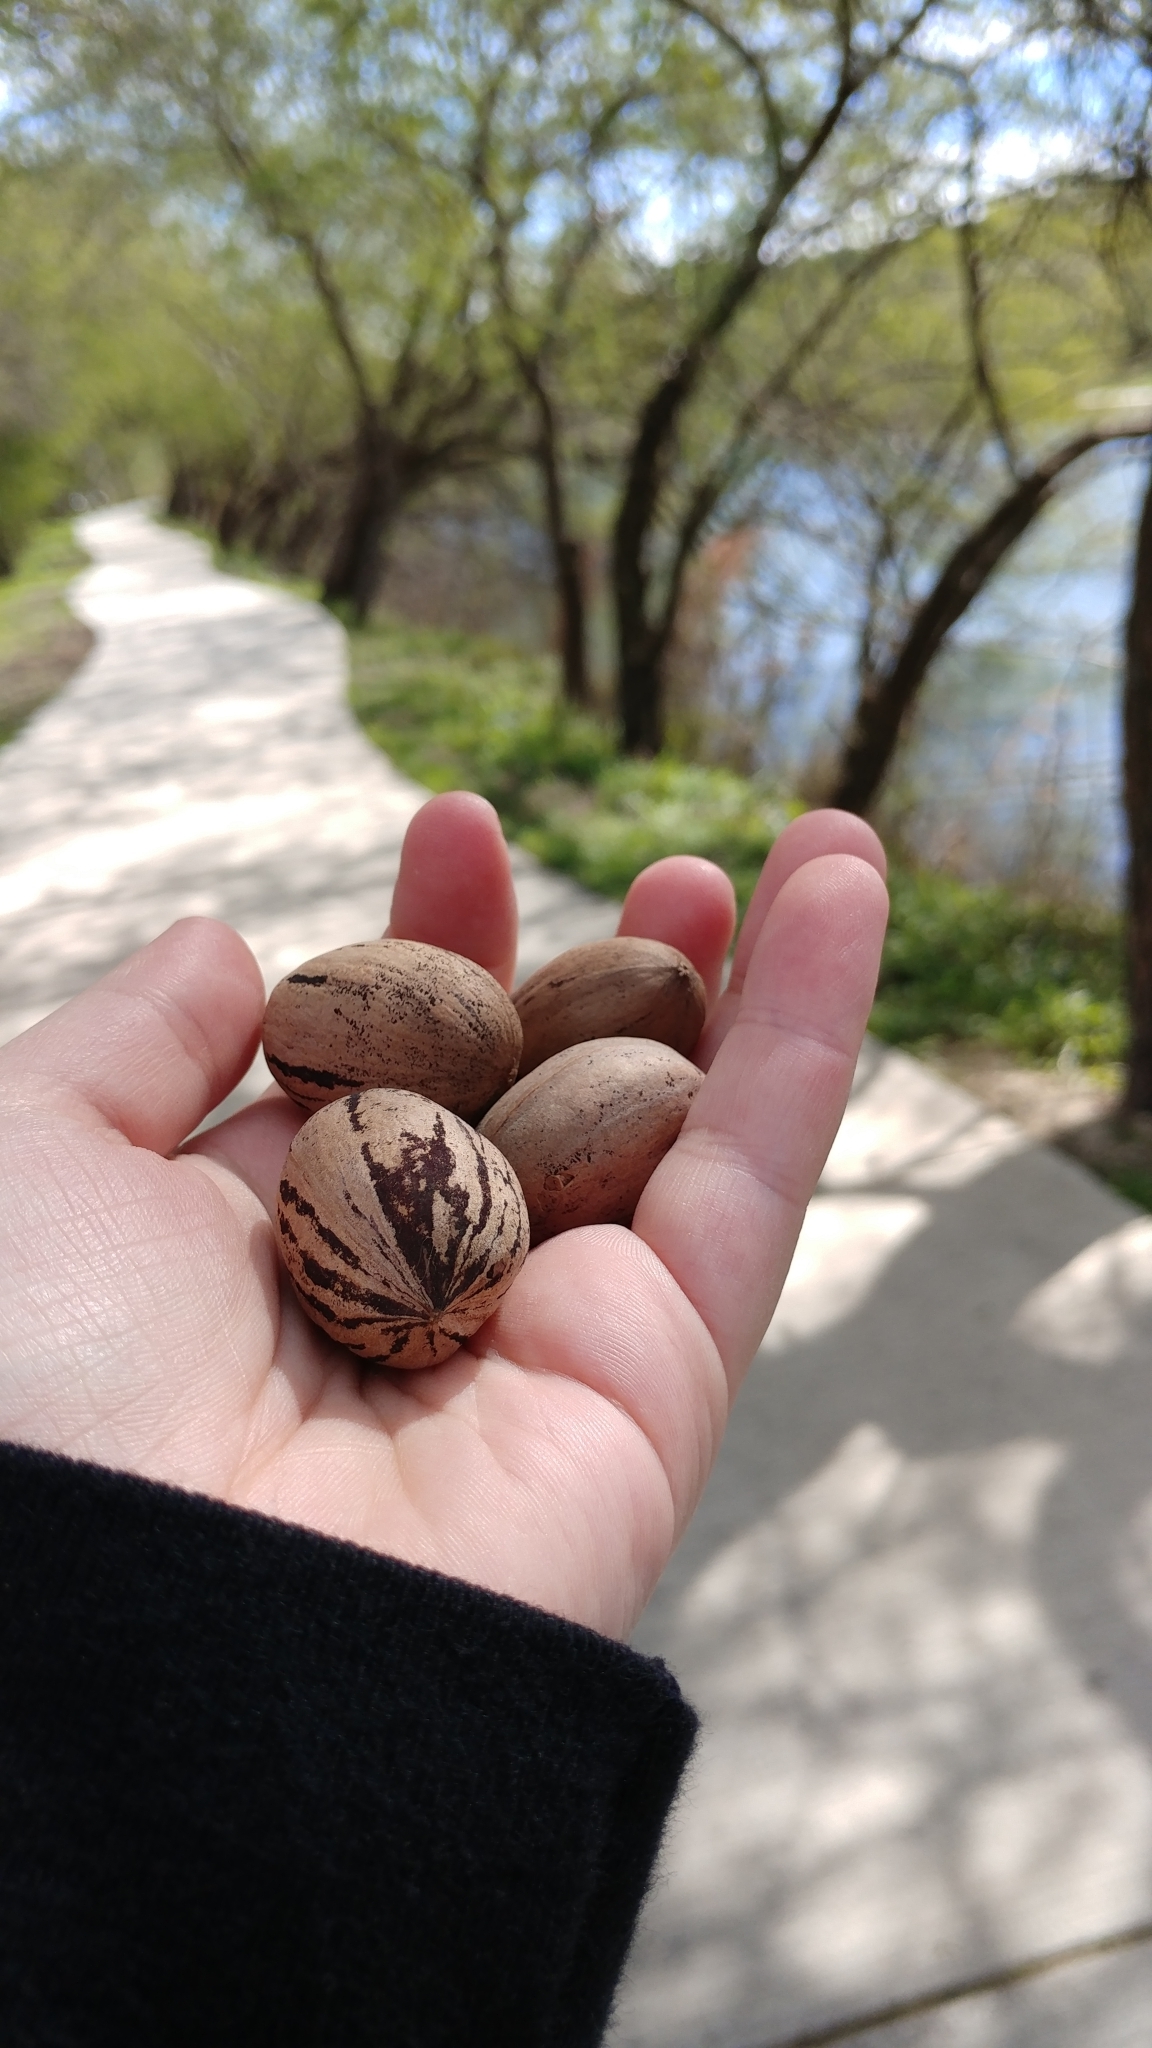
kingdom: Plantae
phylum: Tracheophyta
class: Magnoliopsida
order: Fagales
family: Juglandaceae
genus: Carya
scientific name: Carya illinoinensis
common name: Pecan
